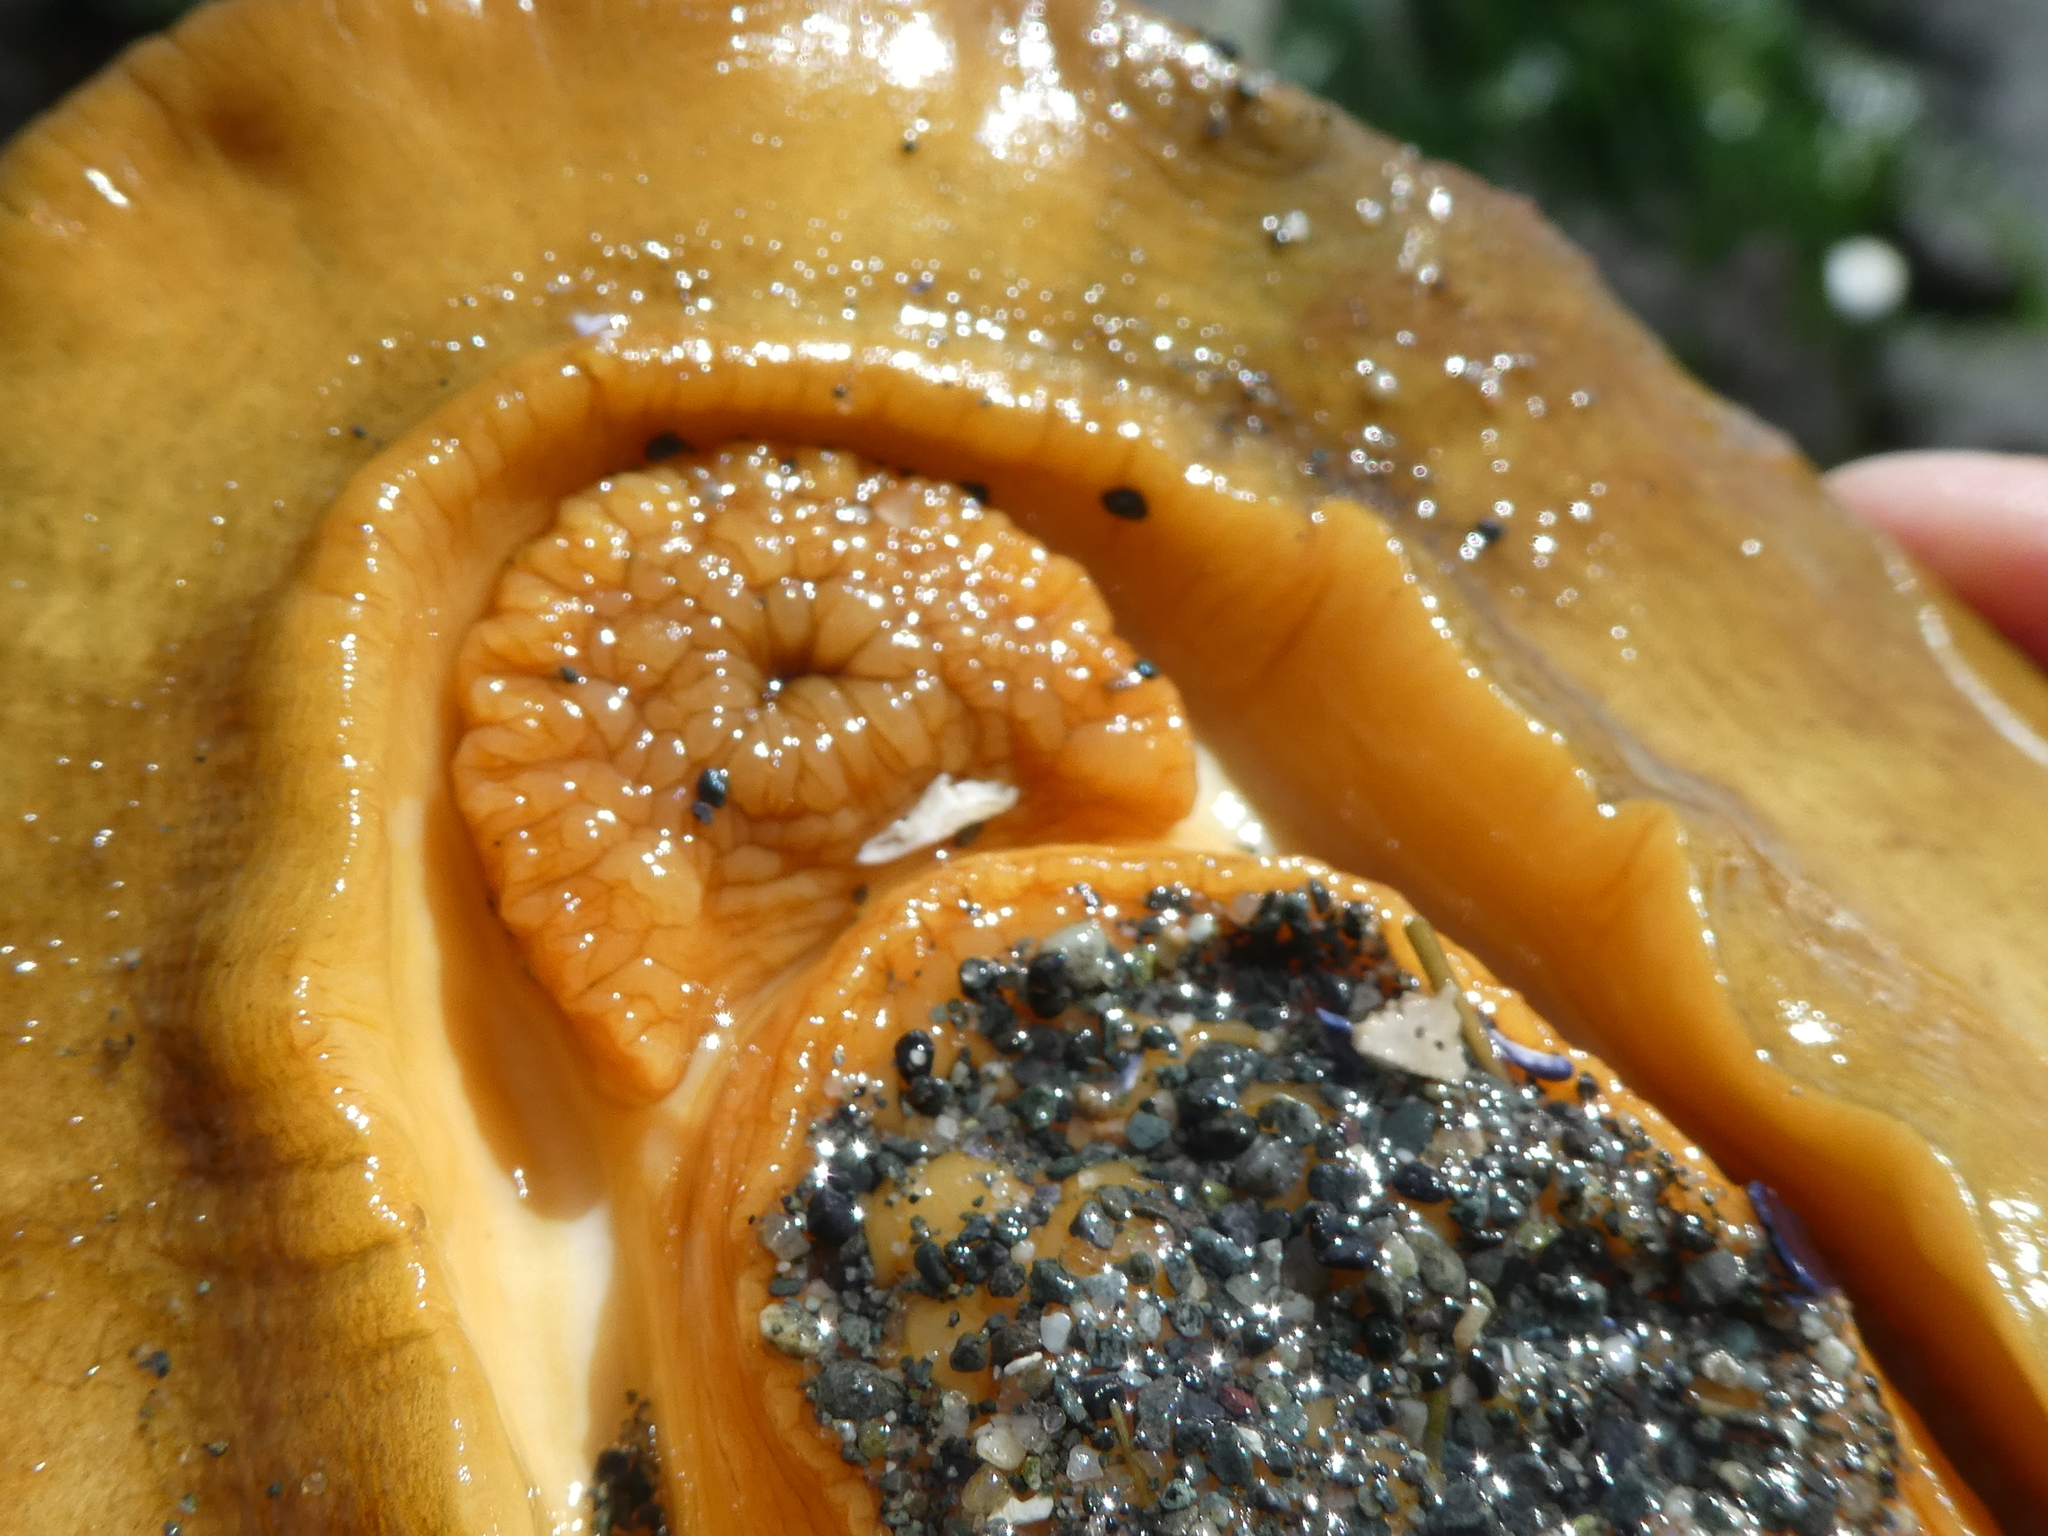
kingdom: Animalia
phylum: Mollusca
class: Polyplacophora
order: Chitonida
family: Acanthochitonidae
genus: Cryptochiton
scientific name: Cryptochiton stelleri
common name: Giant pacific chiton
